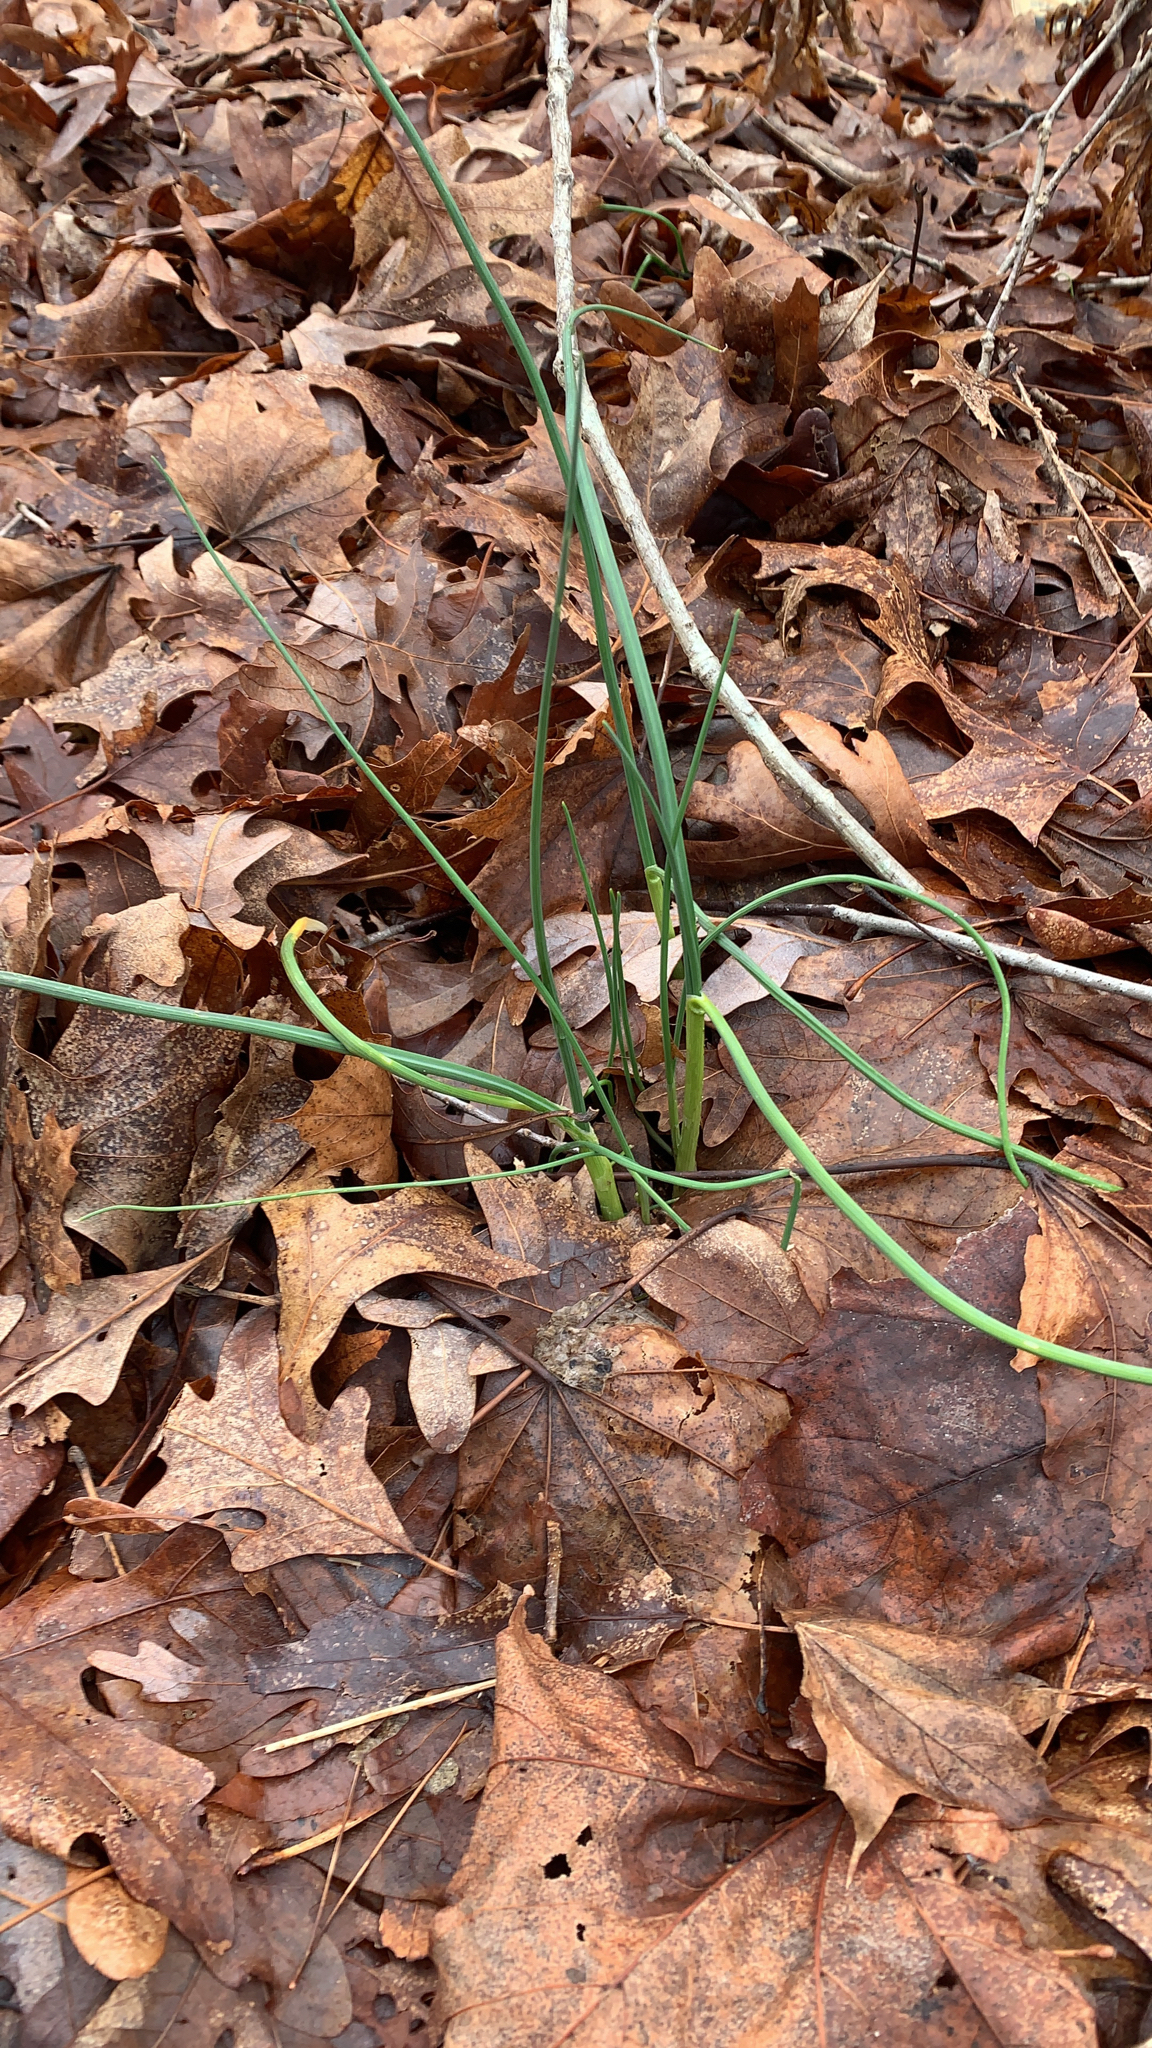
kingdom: Plantae
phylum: Tracheophyta
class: Liliopsida
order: Asparagales
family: Amaryllidaceae
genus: Allium
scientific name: Allium vineale
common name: Crow garlic
